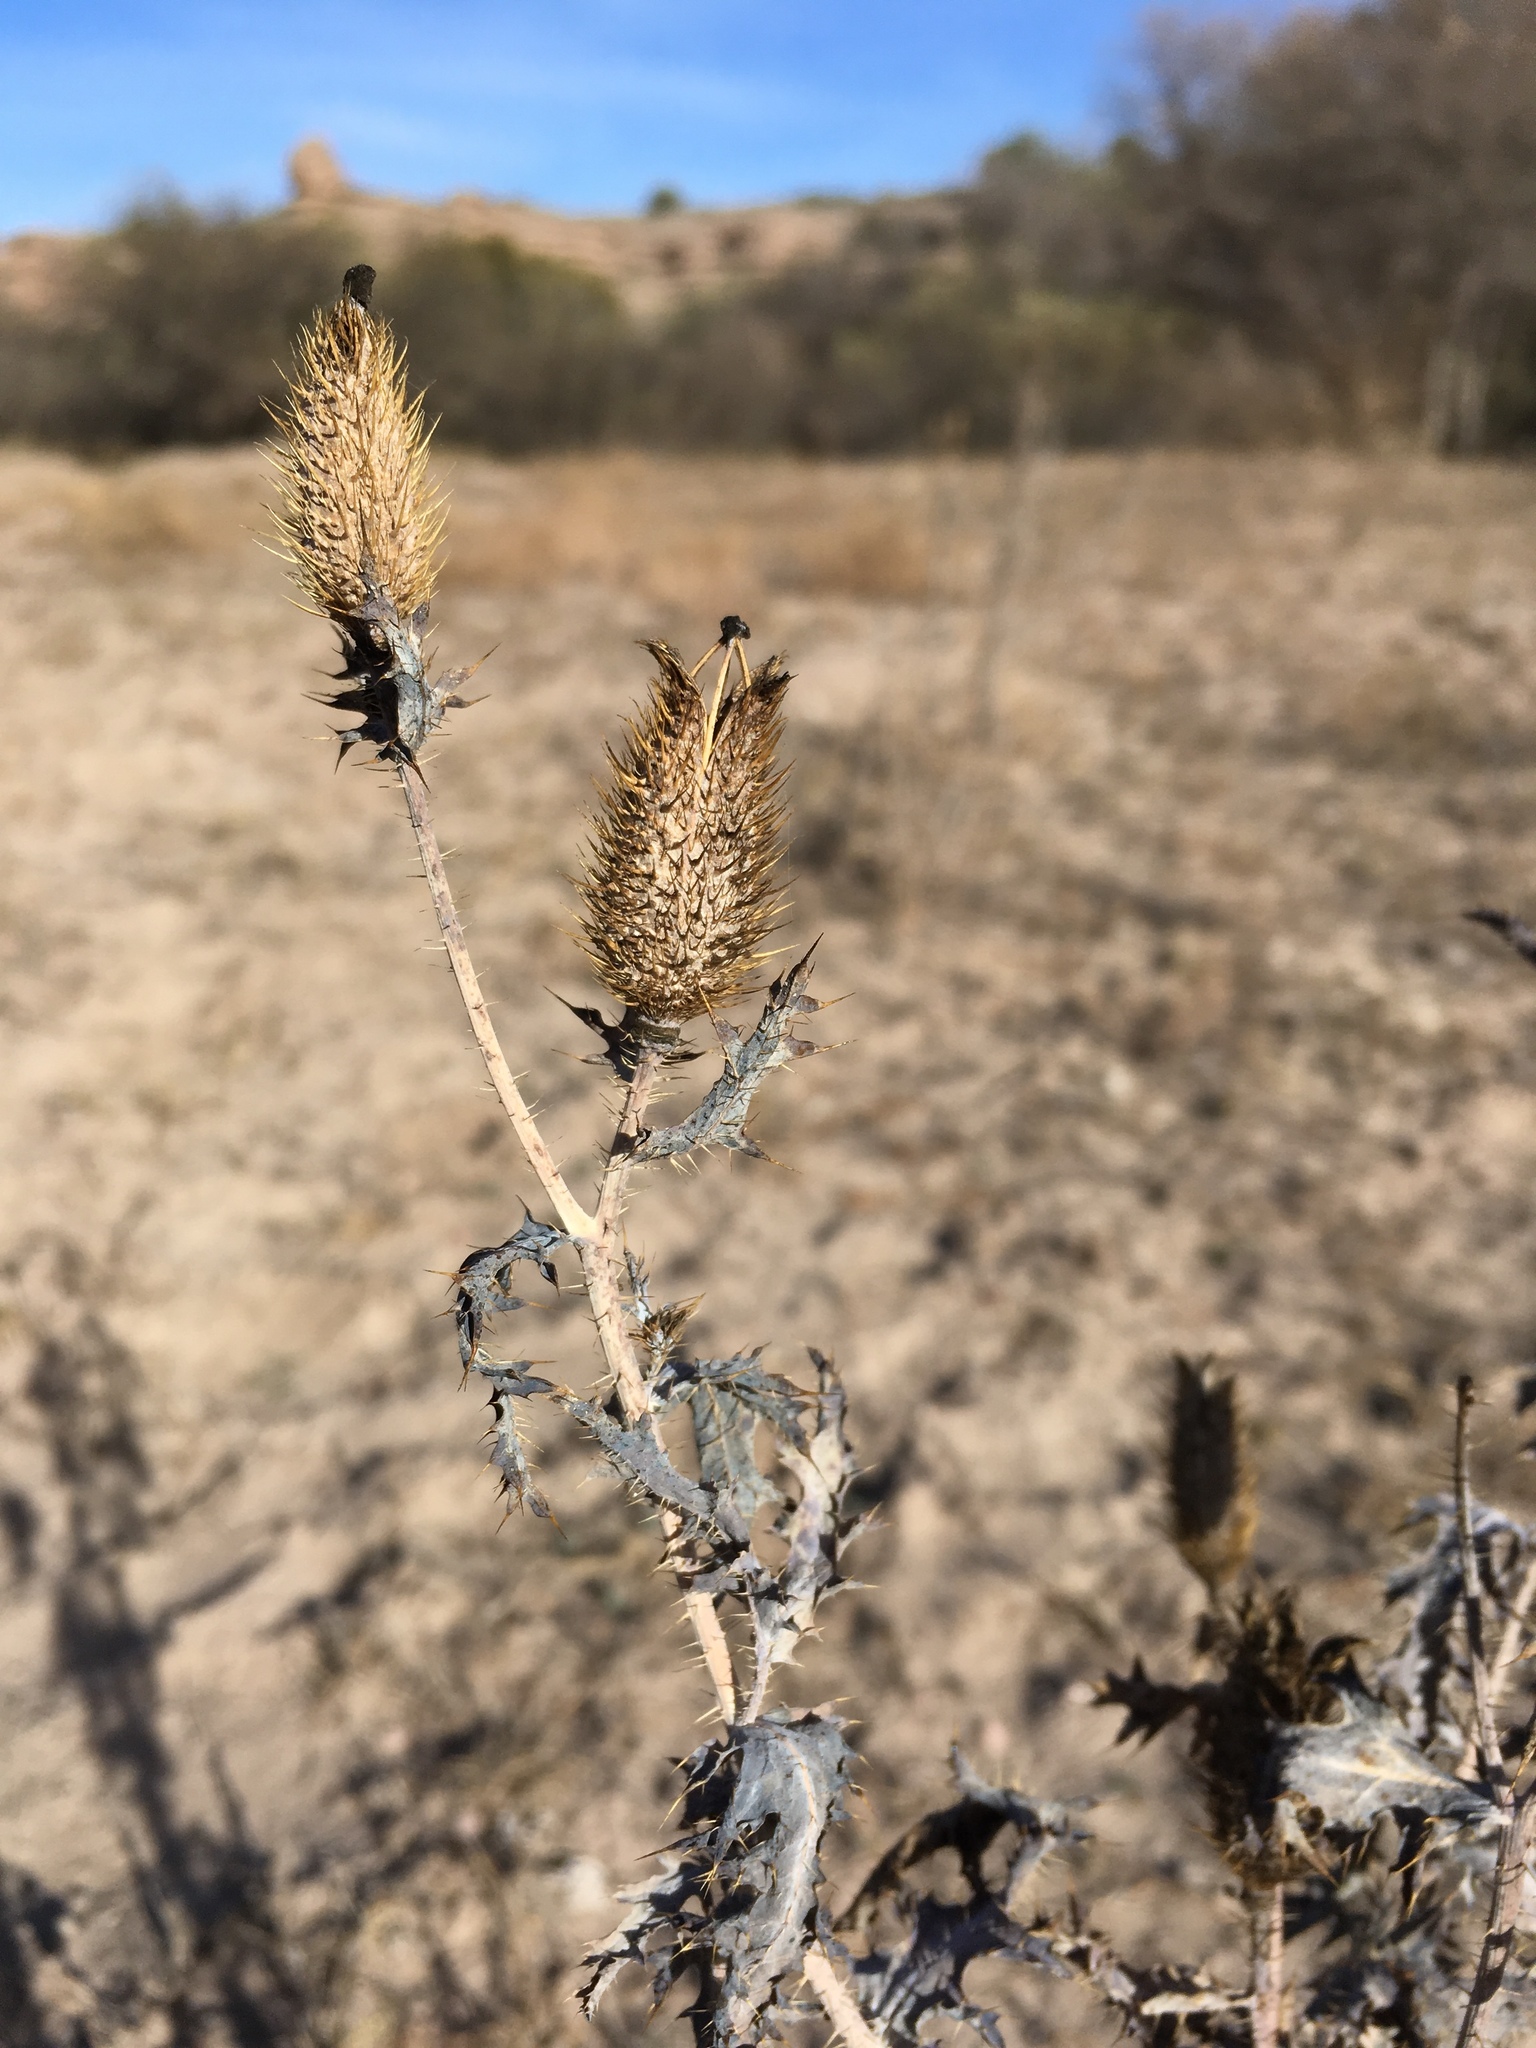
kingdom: Plantae
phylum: Tracheophyta
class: Magnoliopsida
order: Ranunculales
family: Papaveraceae
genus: Argemone
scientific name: Argemone pleiacantha
